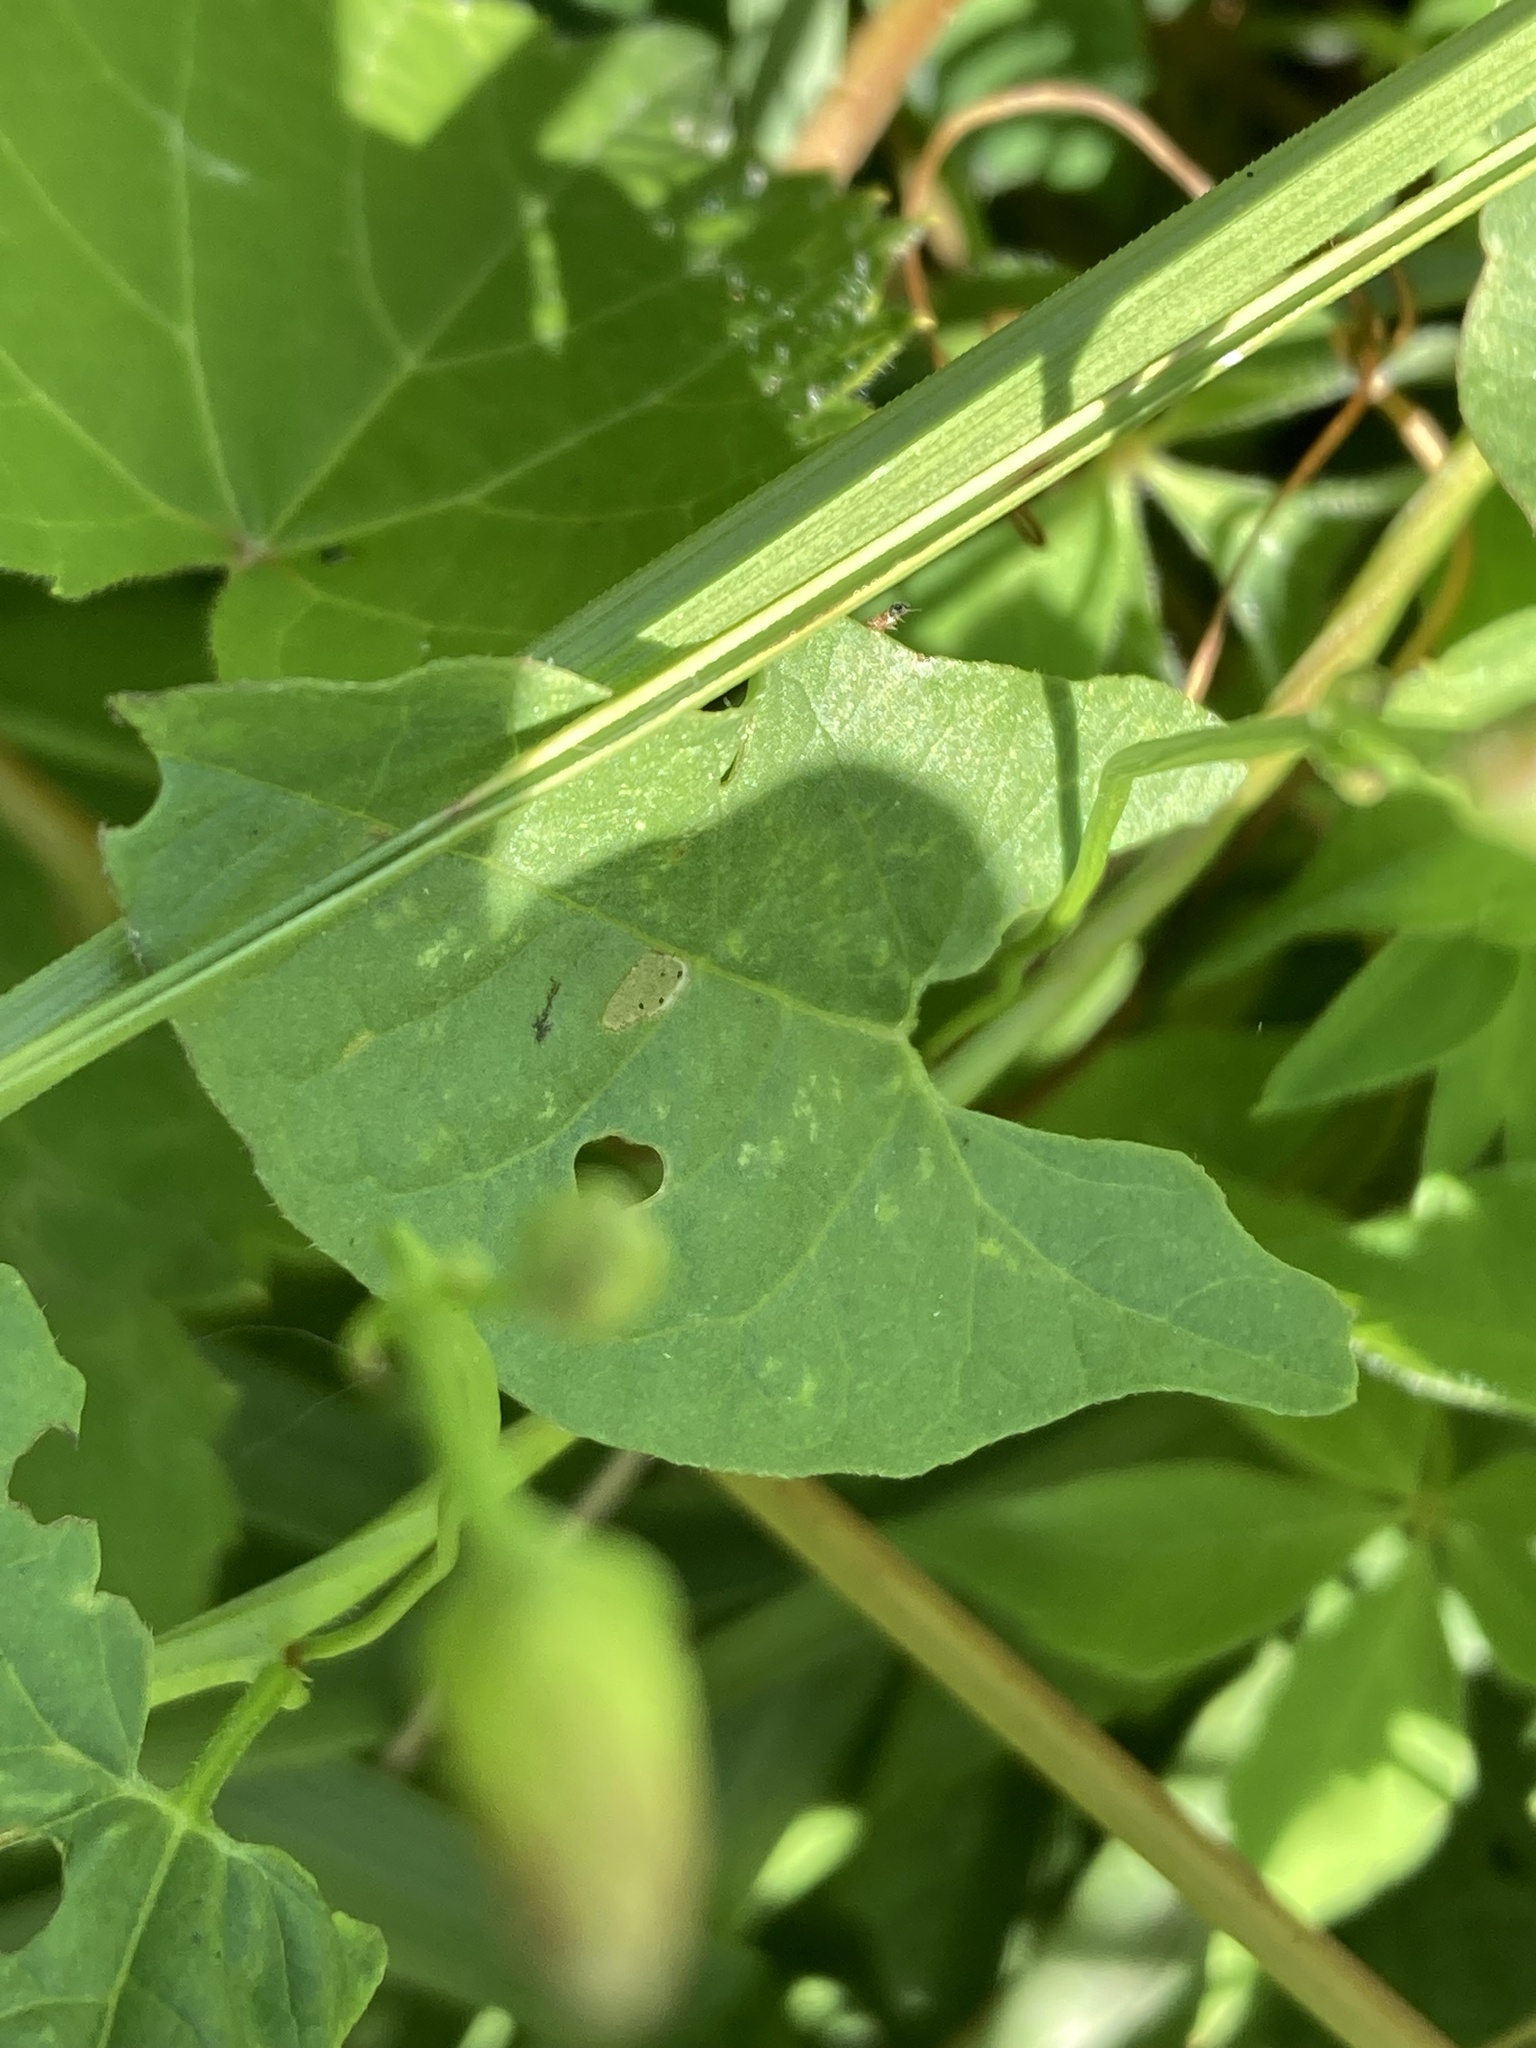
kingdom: Plantae
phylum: Tracheophyta
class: Magnoliopsida
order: Solanales
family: Convolvulaceae
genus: Convolvulus
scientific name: Convolvulus arvensis
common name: Field bindweed
